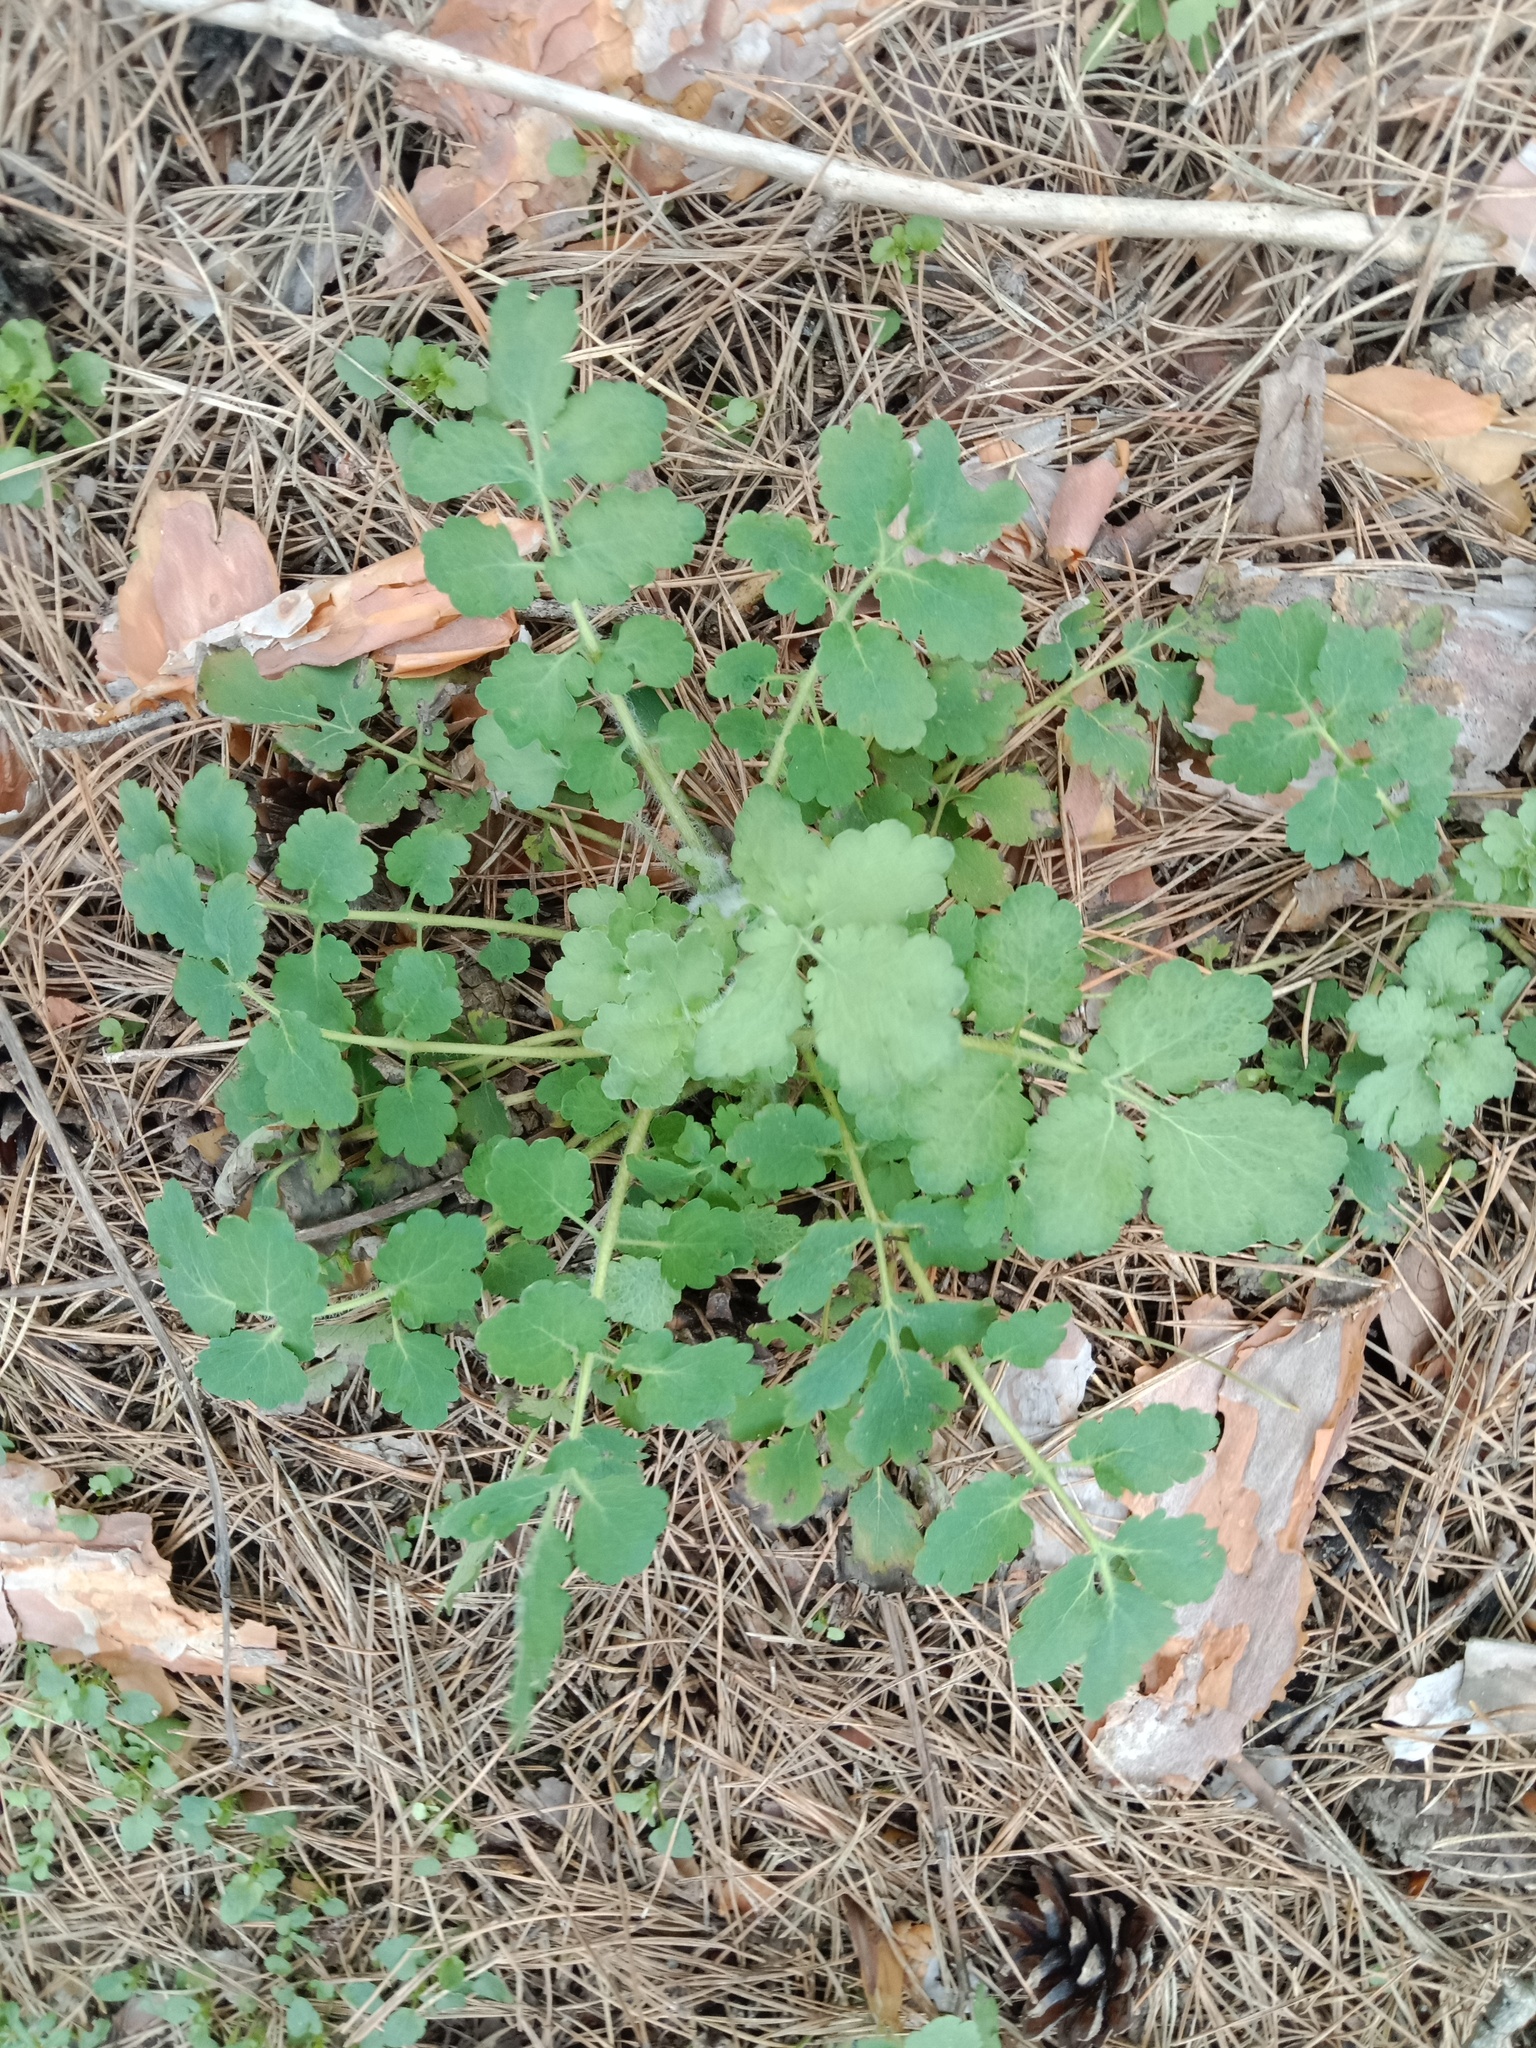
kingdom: Plantae
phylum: Tracheophyta
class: Magnoliopsida
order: Ranunculales
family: Papaveraceae
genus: Chelidonium
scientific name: Chelidonium majus
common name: Greater celandine
